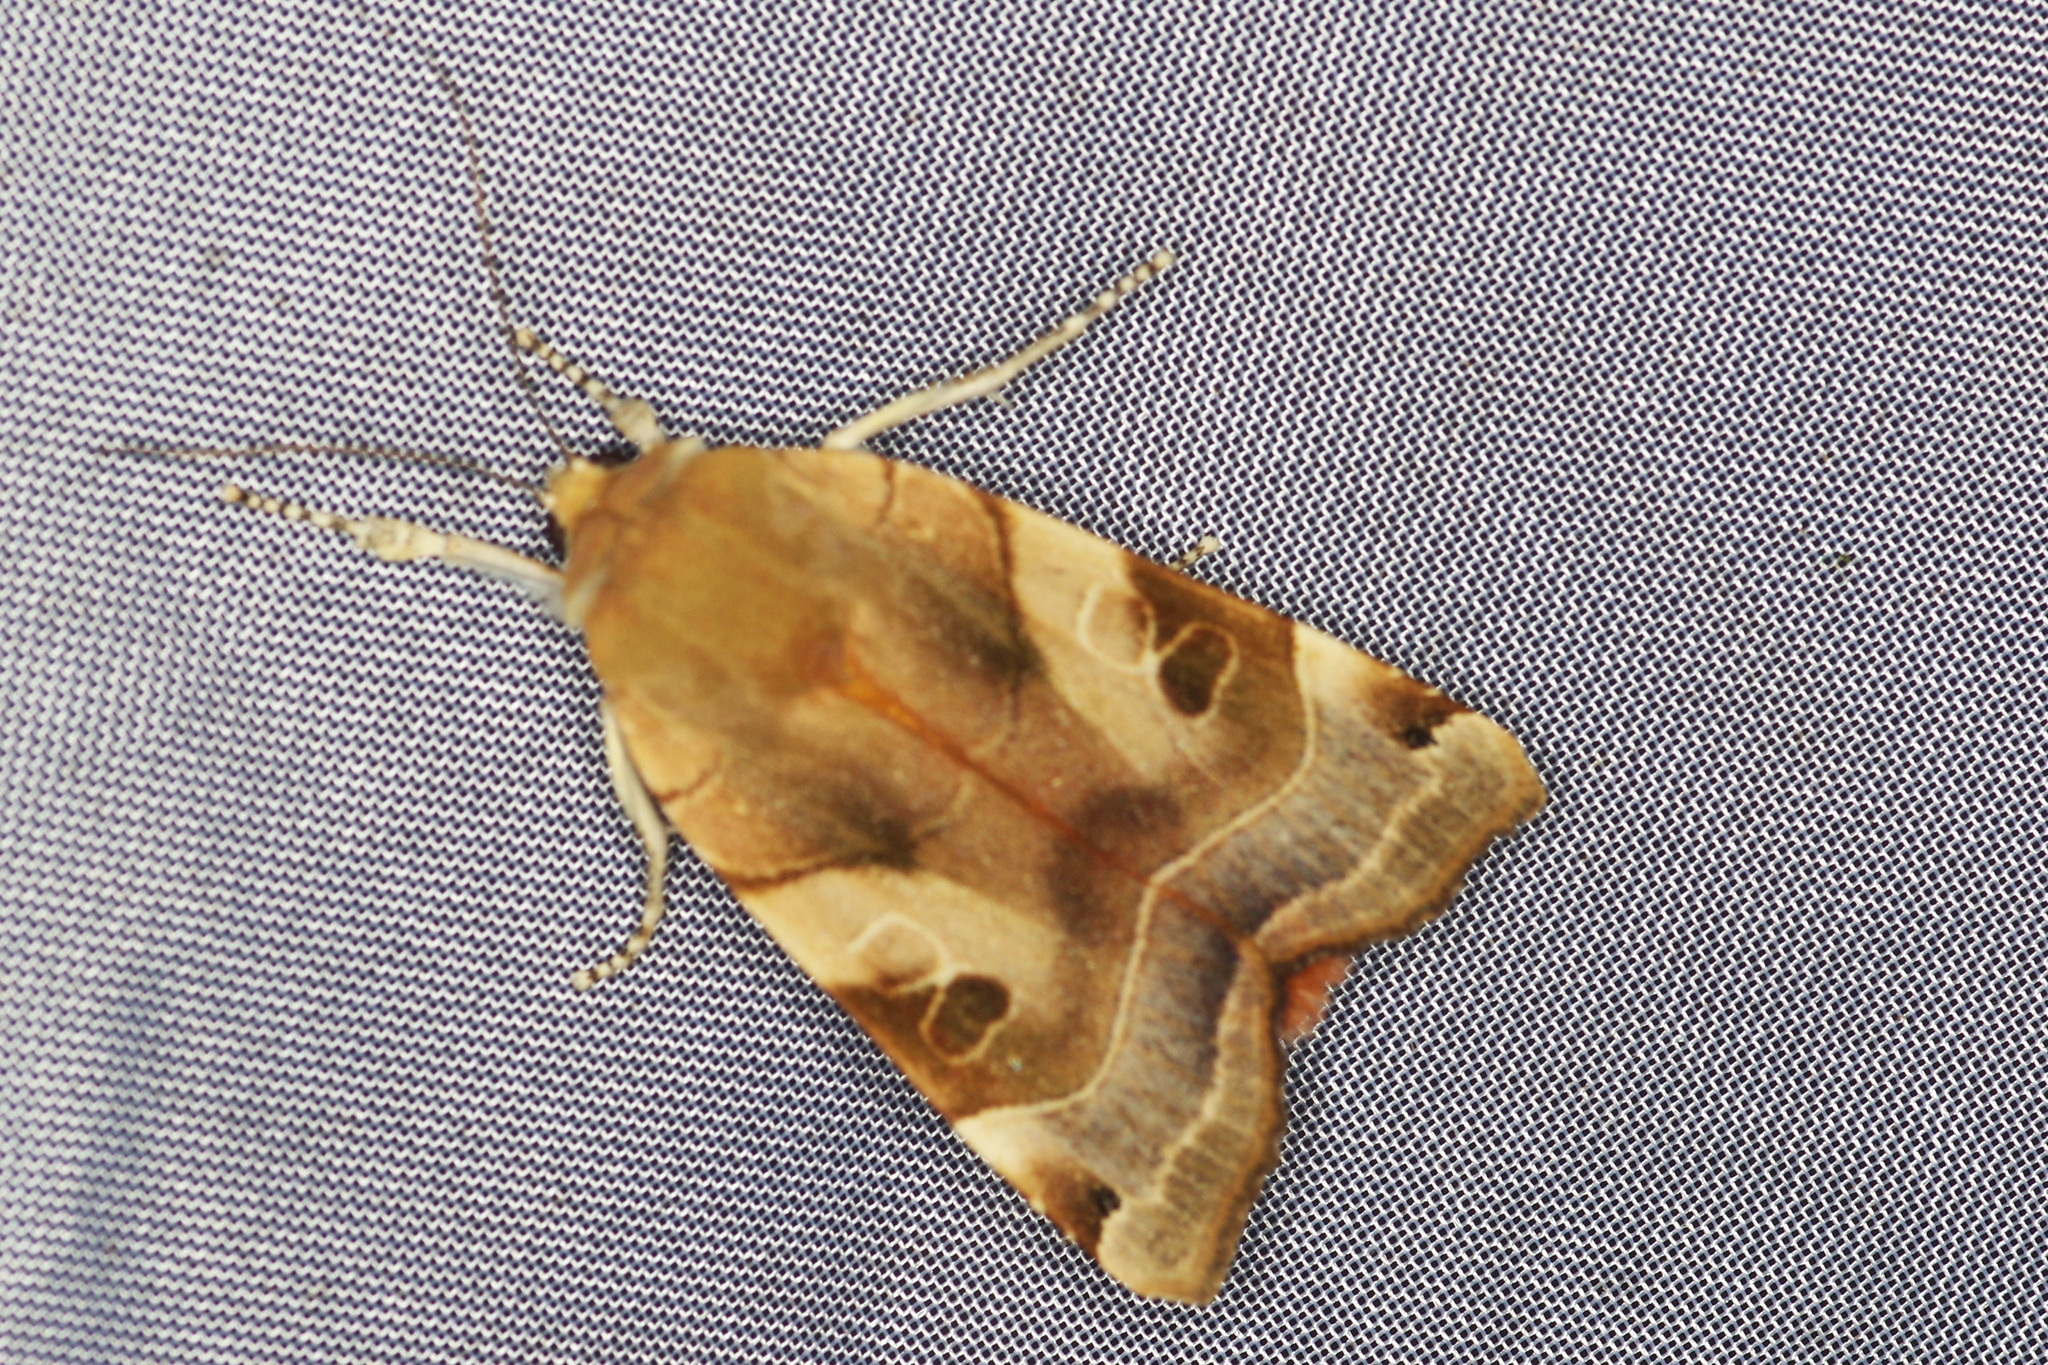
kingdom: Animalia
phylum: Arthropoda
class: Insecta
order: Lepidoptera
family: Noctuidae
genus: Noctua
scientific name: Noctua fimbriata
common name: Broad-bordered yellow underwing
